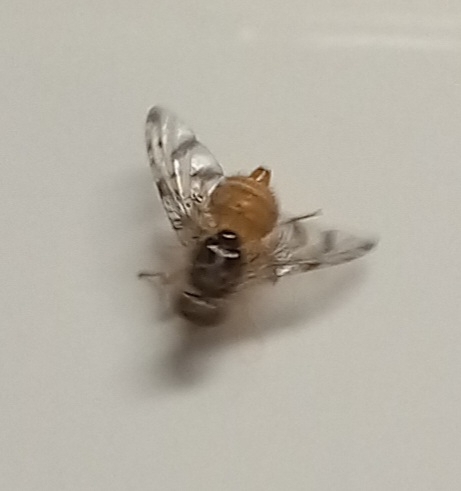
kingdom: Animalia
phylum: Arthropoda
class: Insecta
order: Diptera
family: Tephritidae
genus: Ceratitis
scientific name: Ceratitis capitata
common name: Mediterranean fruit fly
